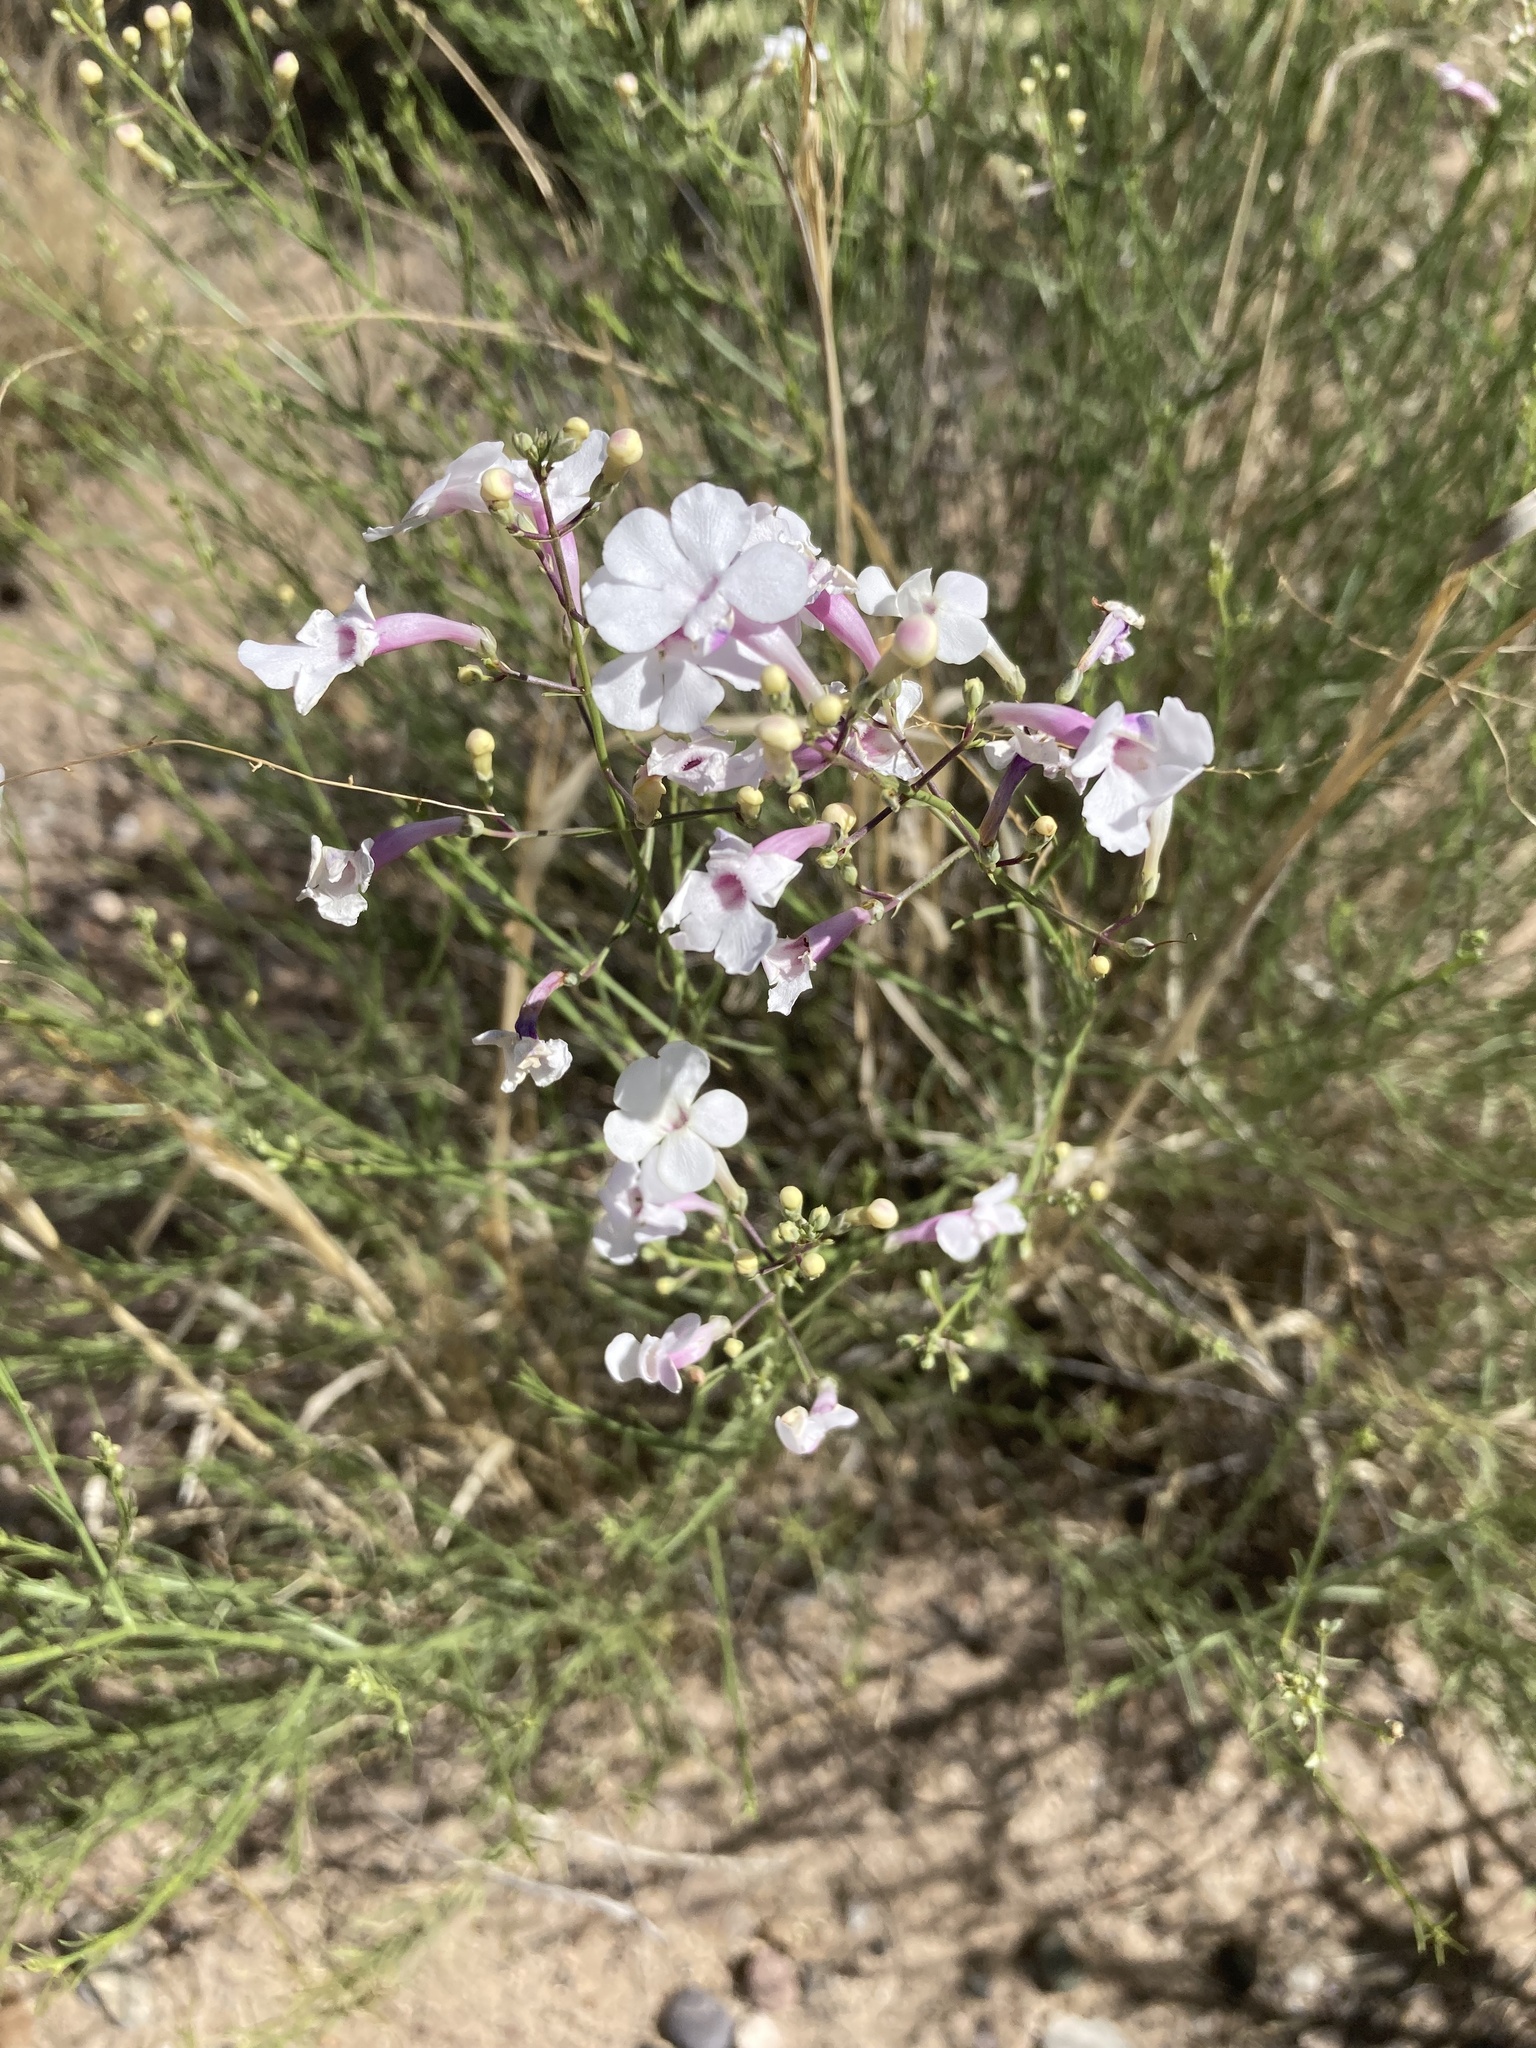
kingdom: Plantae
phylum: Tracheophyta
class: Magnoliopsida
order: Lamiales
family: Plantaginaceae
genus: Penstemon
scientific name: Penstemon ambiguus
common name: Bush penstemon
